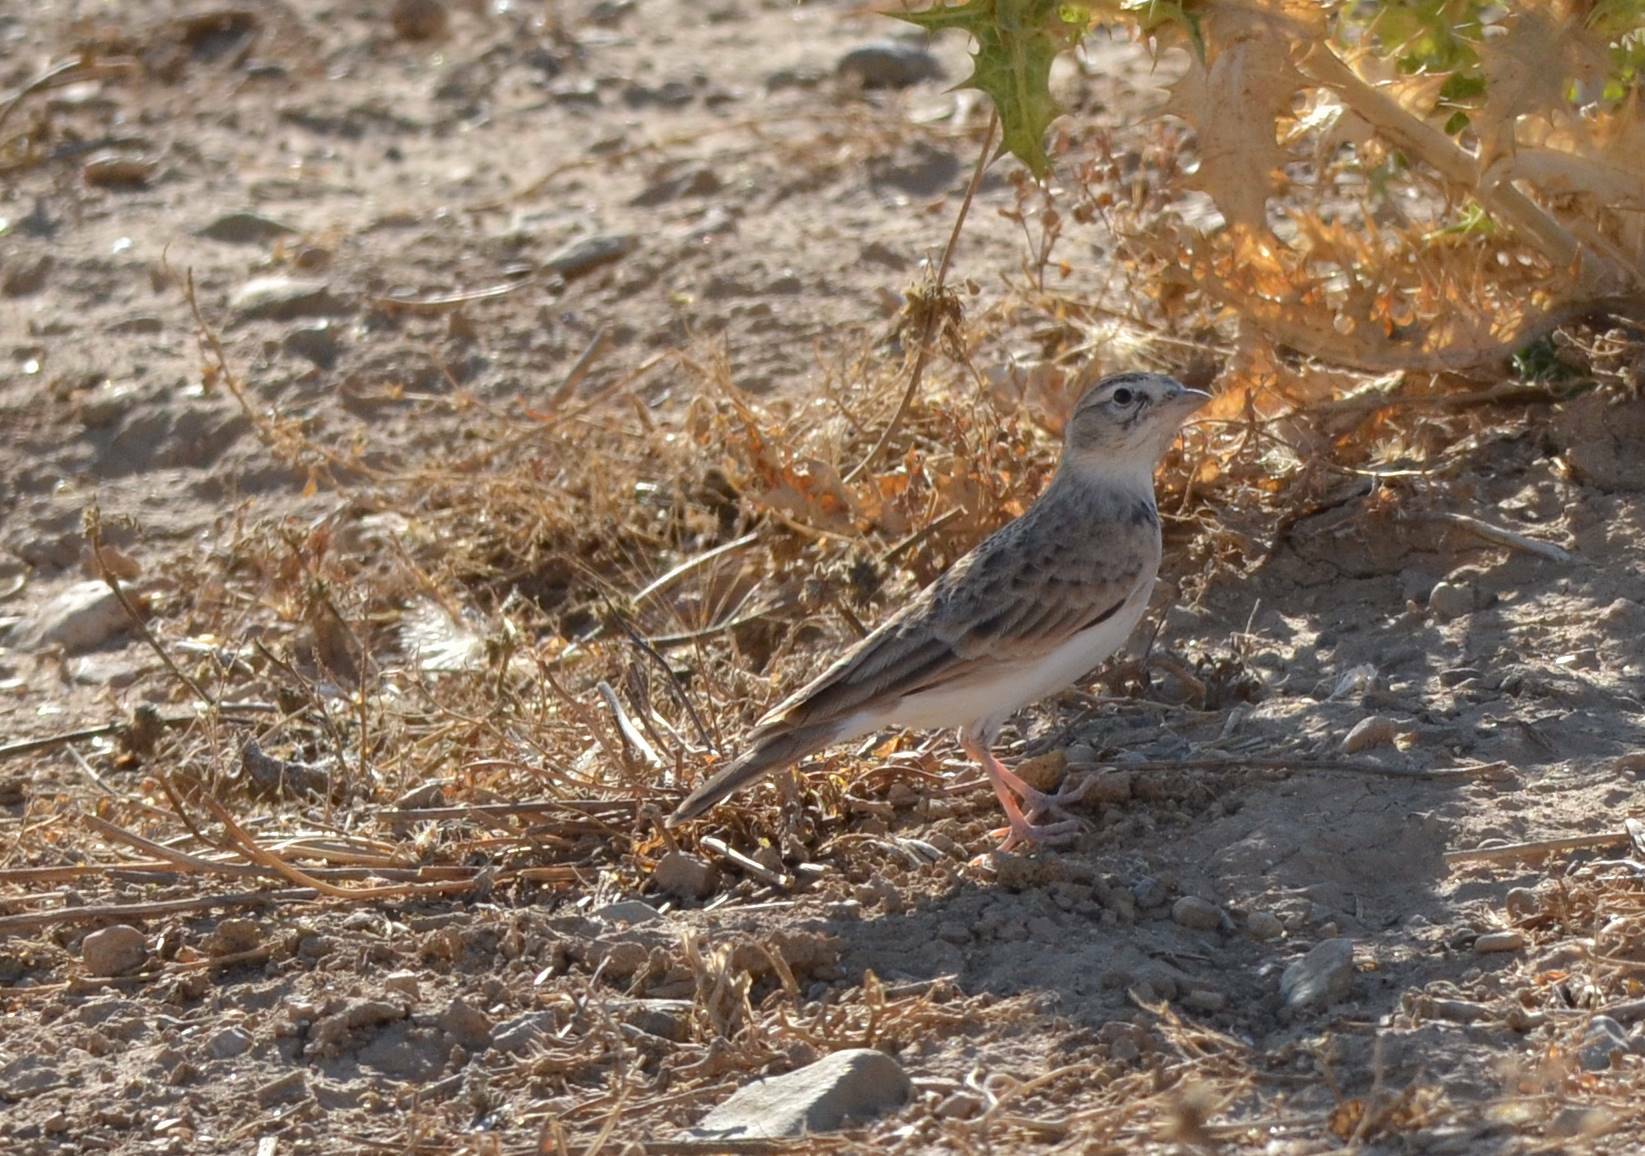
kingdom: Animalia
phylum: Chordata
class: Aves
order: Passeriformes
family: Alaudidae
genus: Calandrella
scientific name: Calandrella brachydactyla
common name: Greater short-toed lark
